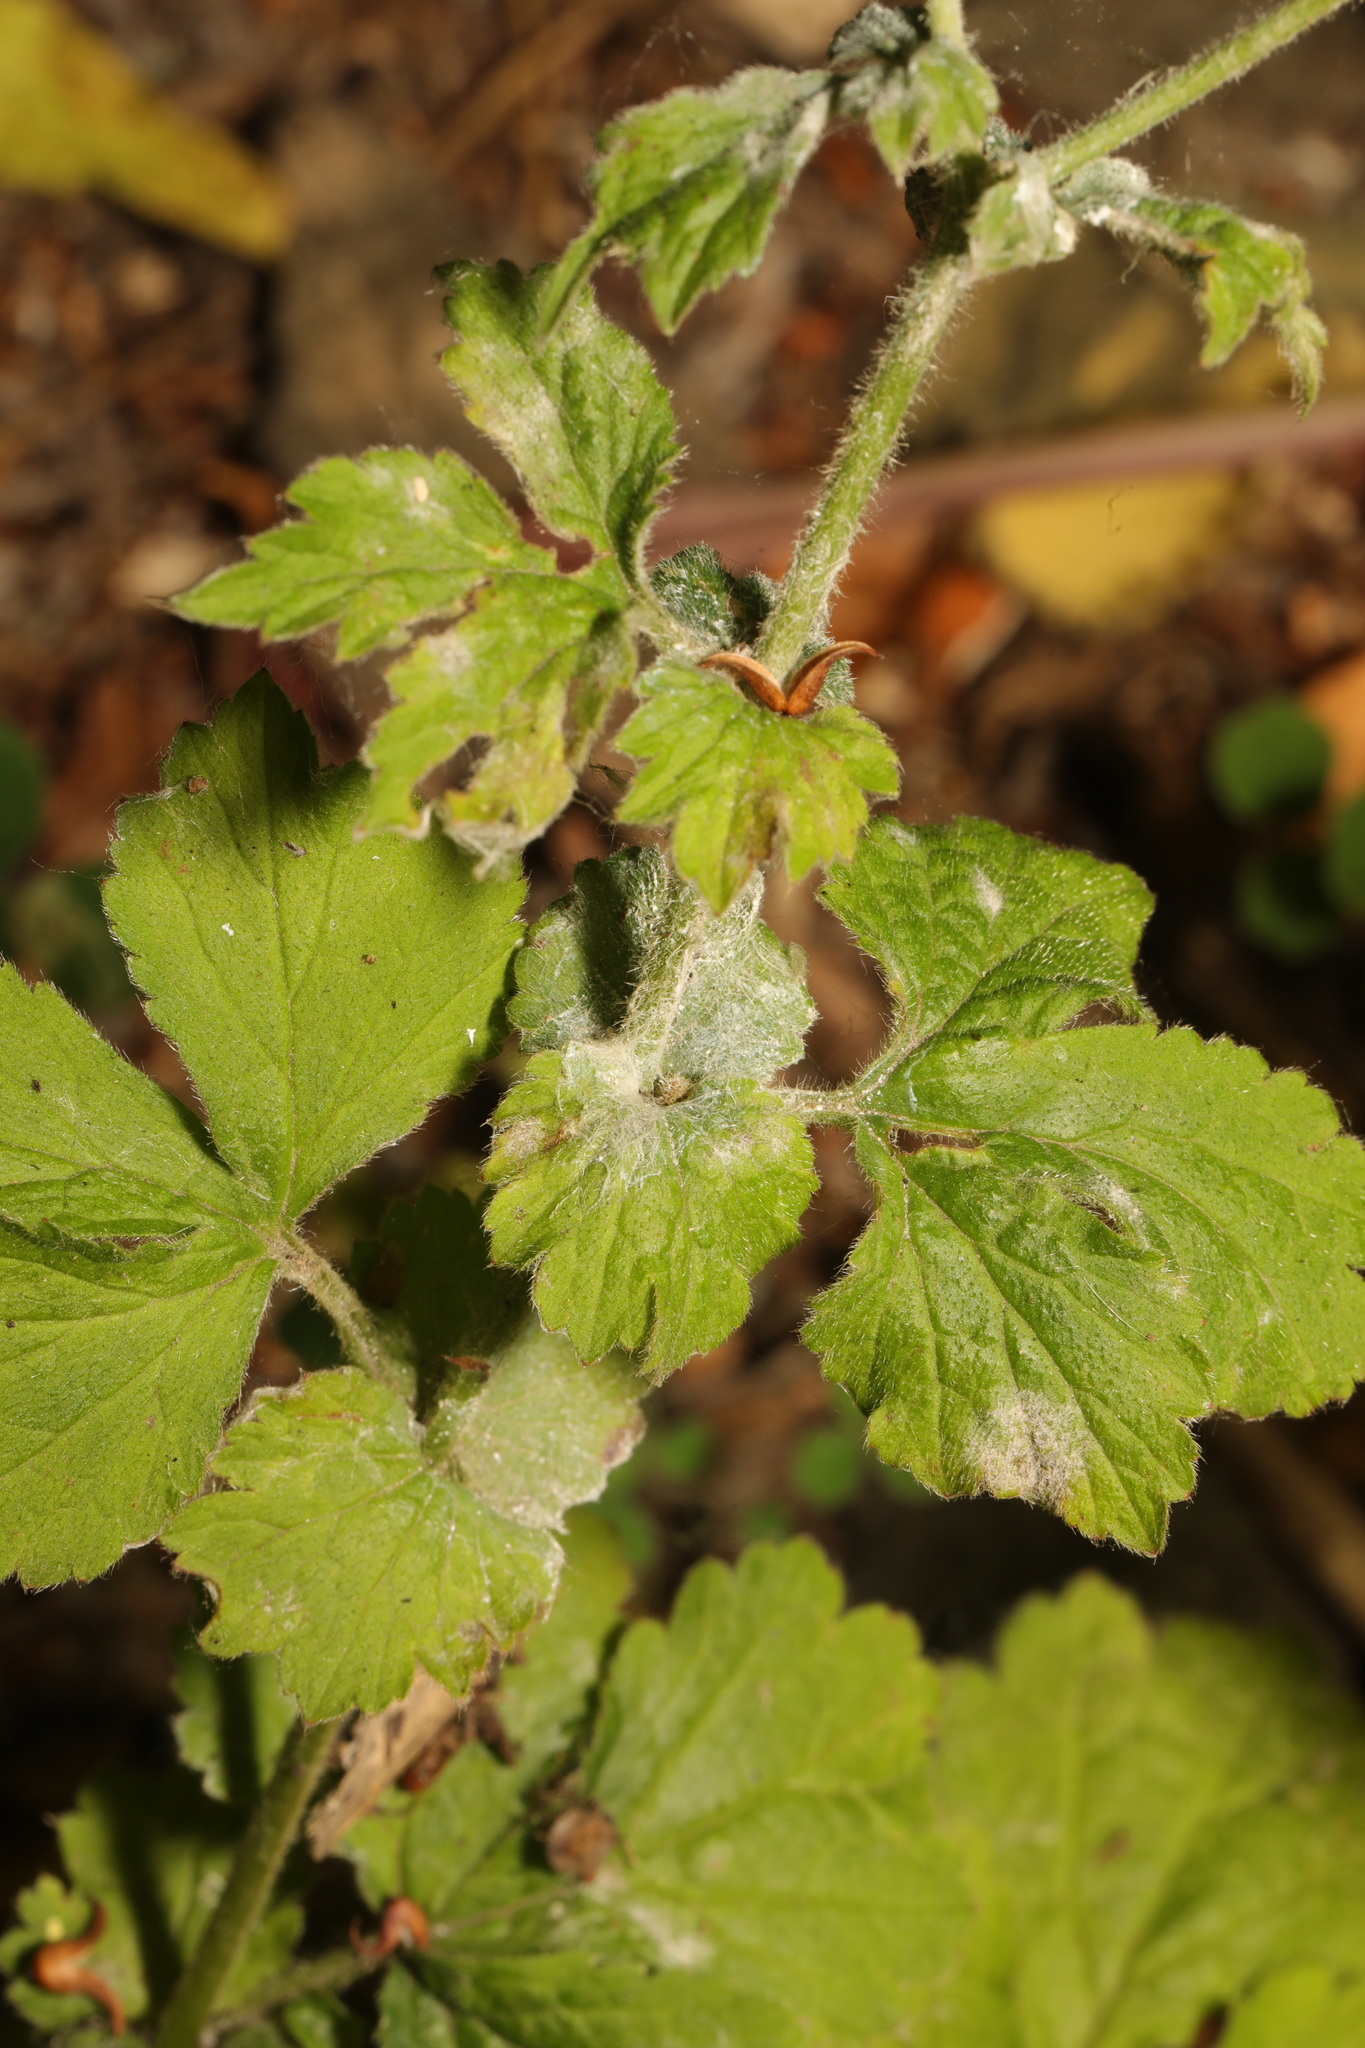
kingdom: Fungi
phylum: Ascomycota
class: Leotiomycetes
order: Helotiales
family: Erysiphaceae
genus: Podosphaera
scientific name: Podosphaera aphanis
